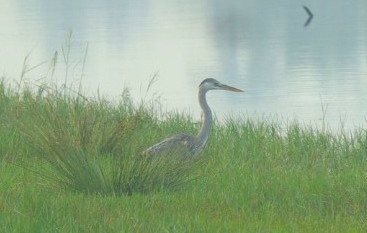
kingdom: Animalia
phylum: Chordata
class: Aves
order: Pelecaniformes
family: Ardeidae
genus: Ardea
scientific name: Ardea cinerea
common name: Grey heron
